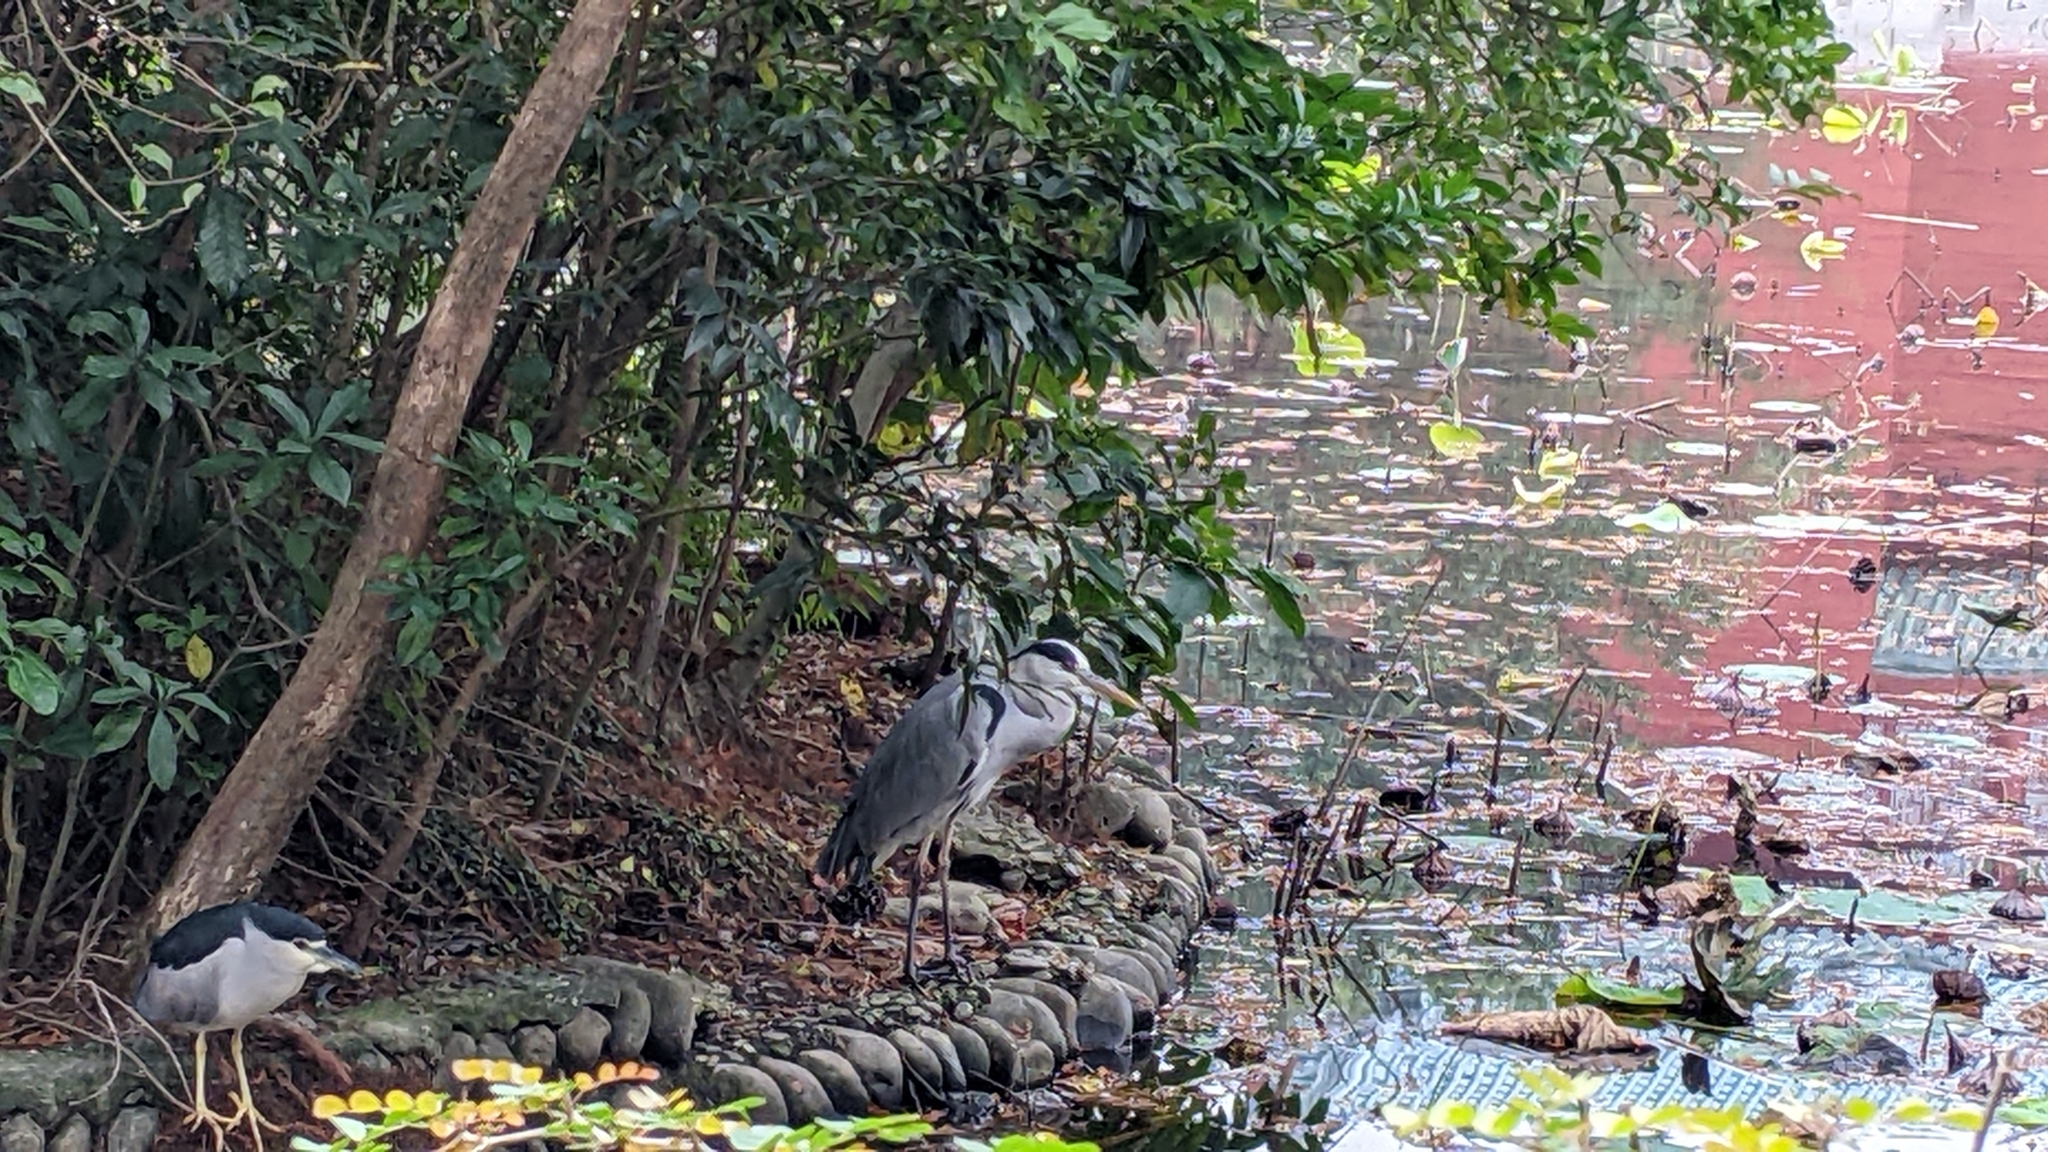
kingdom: Animalia
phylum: Chordata
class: Aves
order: Pelecaniformes
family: Ardeidae
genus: Ardea
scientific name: Ardea cinerea
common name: Grey heron
